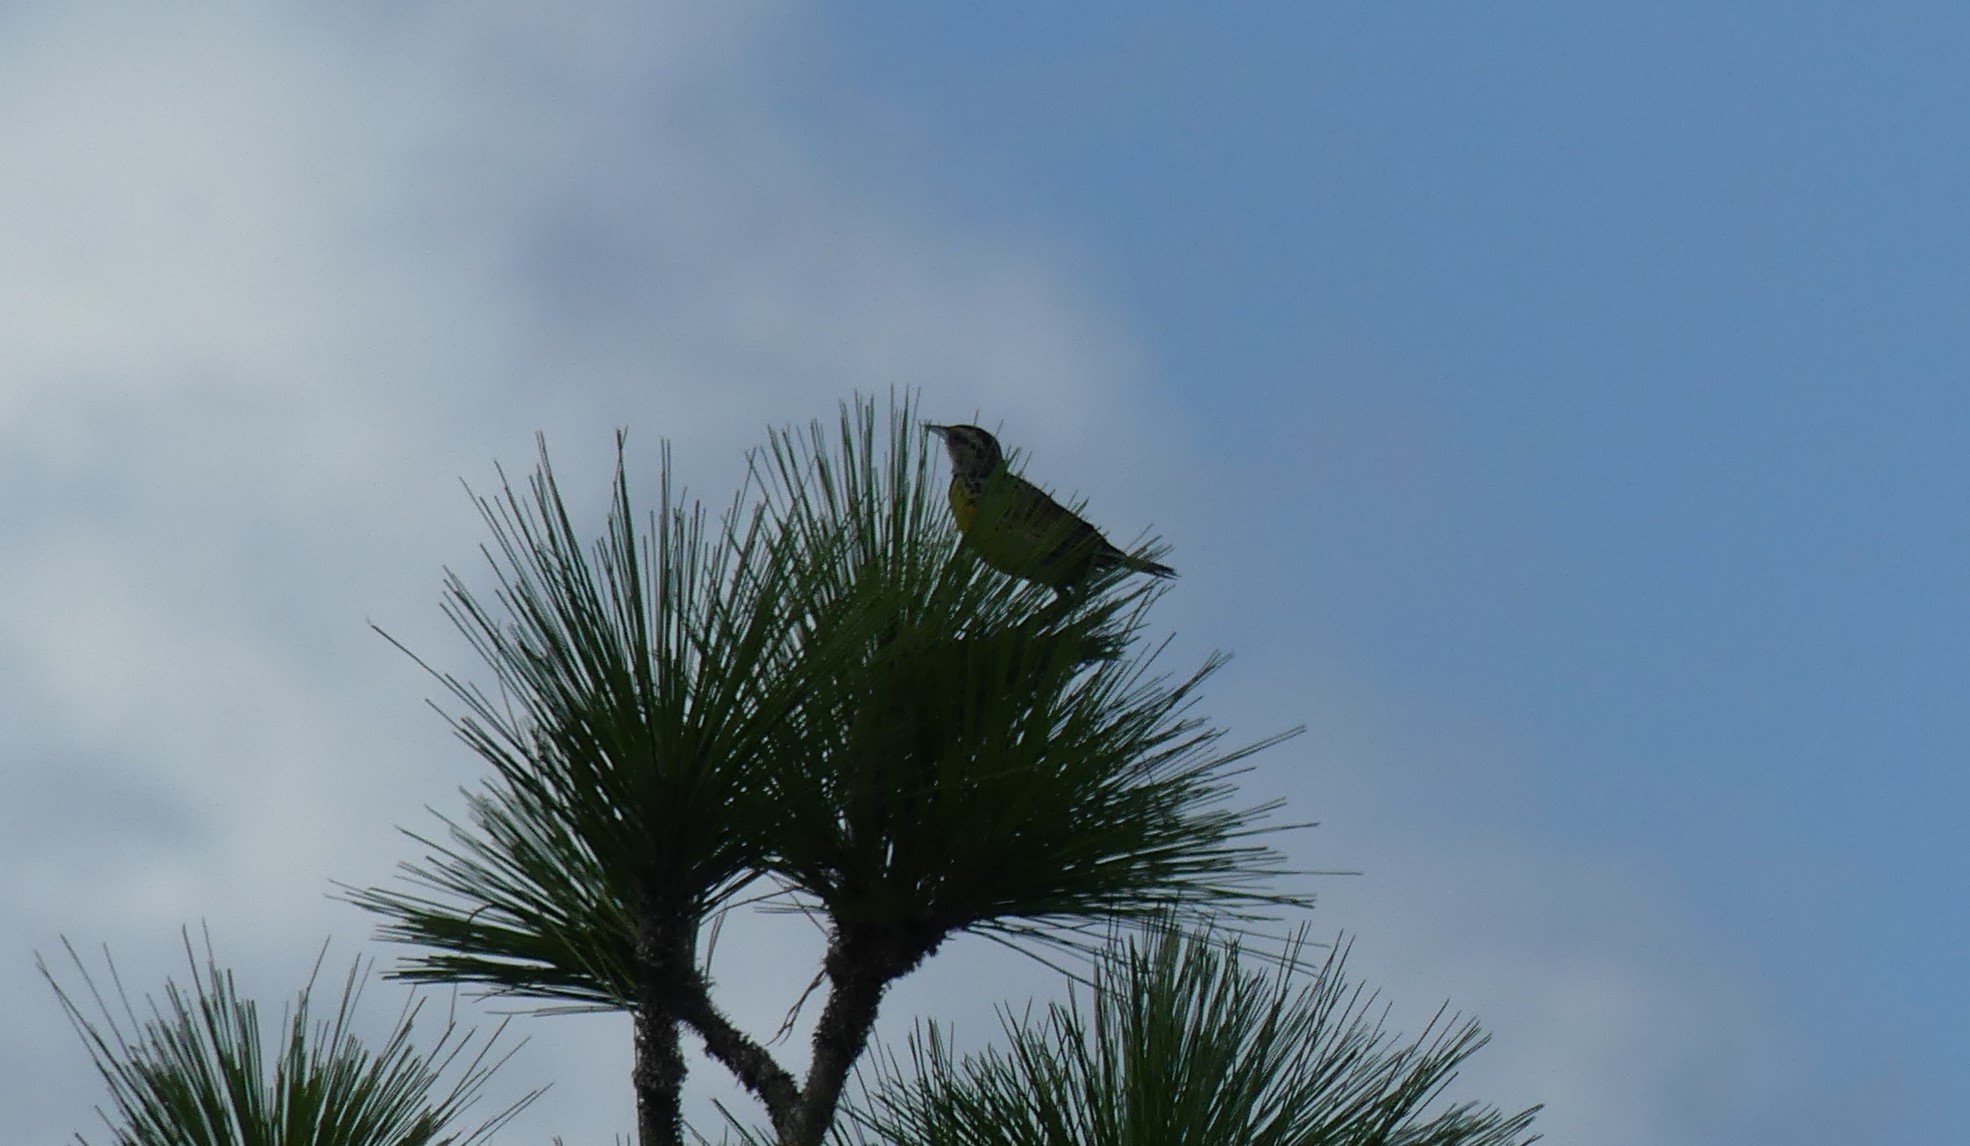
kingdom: Animalia
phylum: Chordata
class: Aves
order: Passeriformes
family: Icteridae
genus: Sturnella
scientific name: Sturnella magna
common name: Eastern meadowlark
